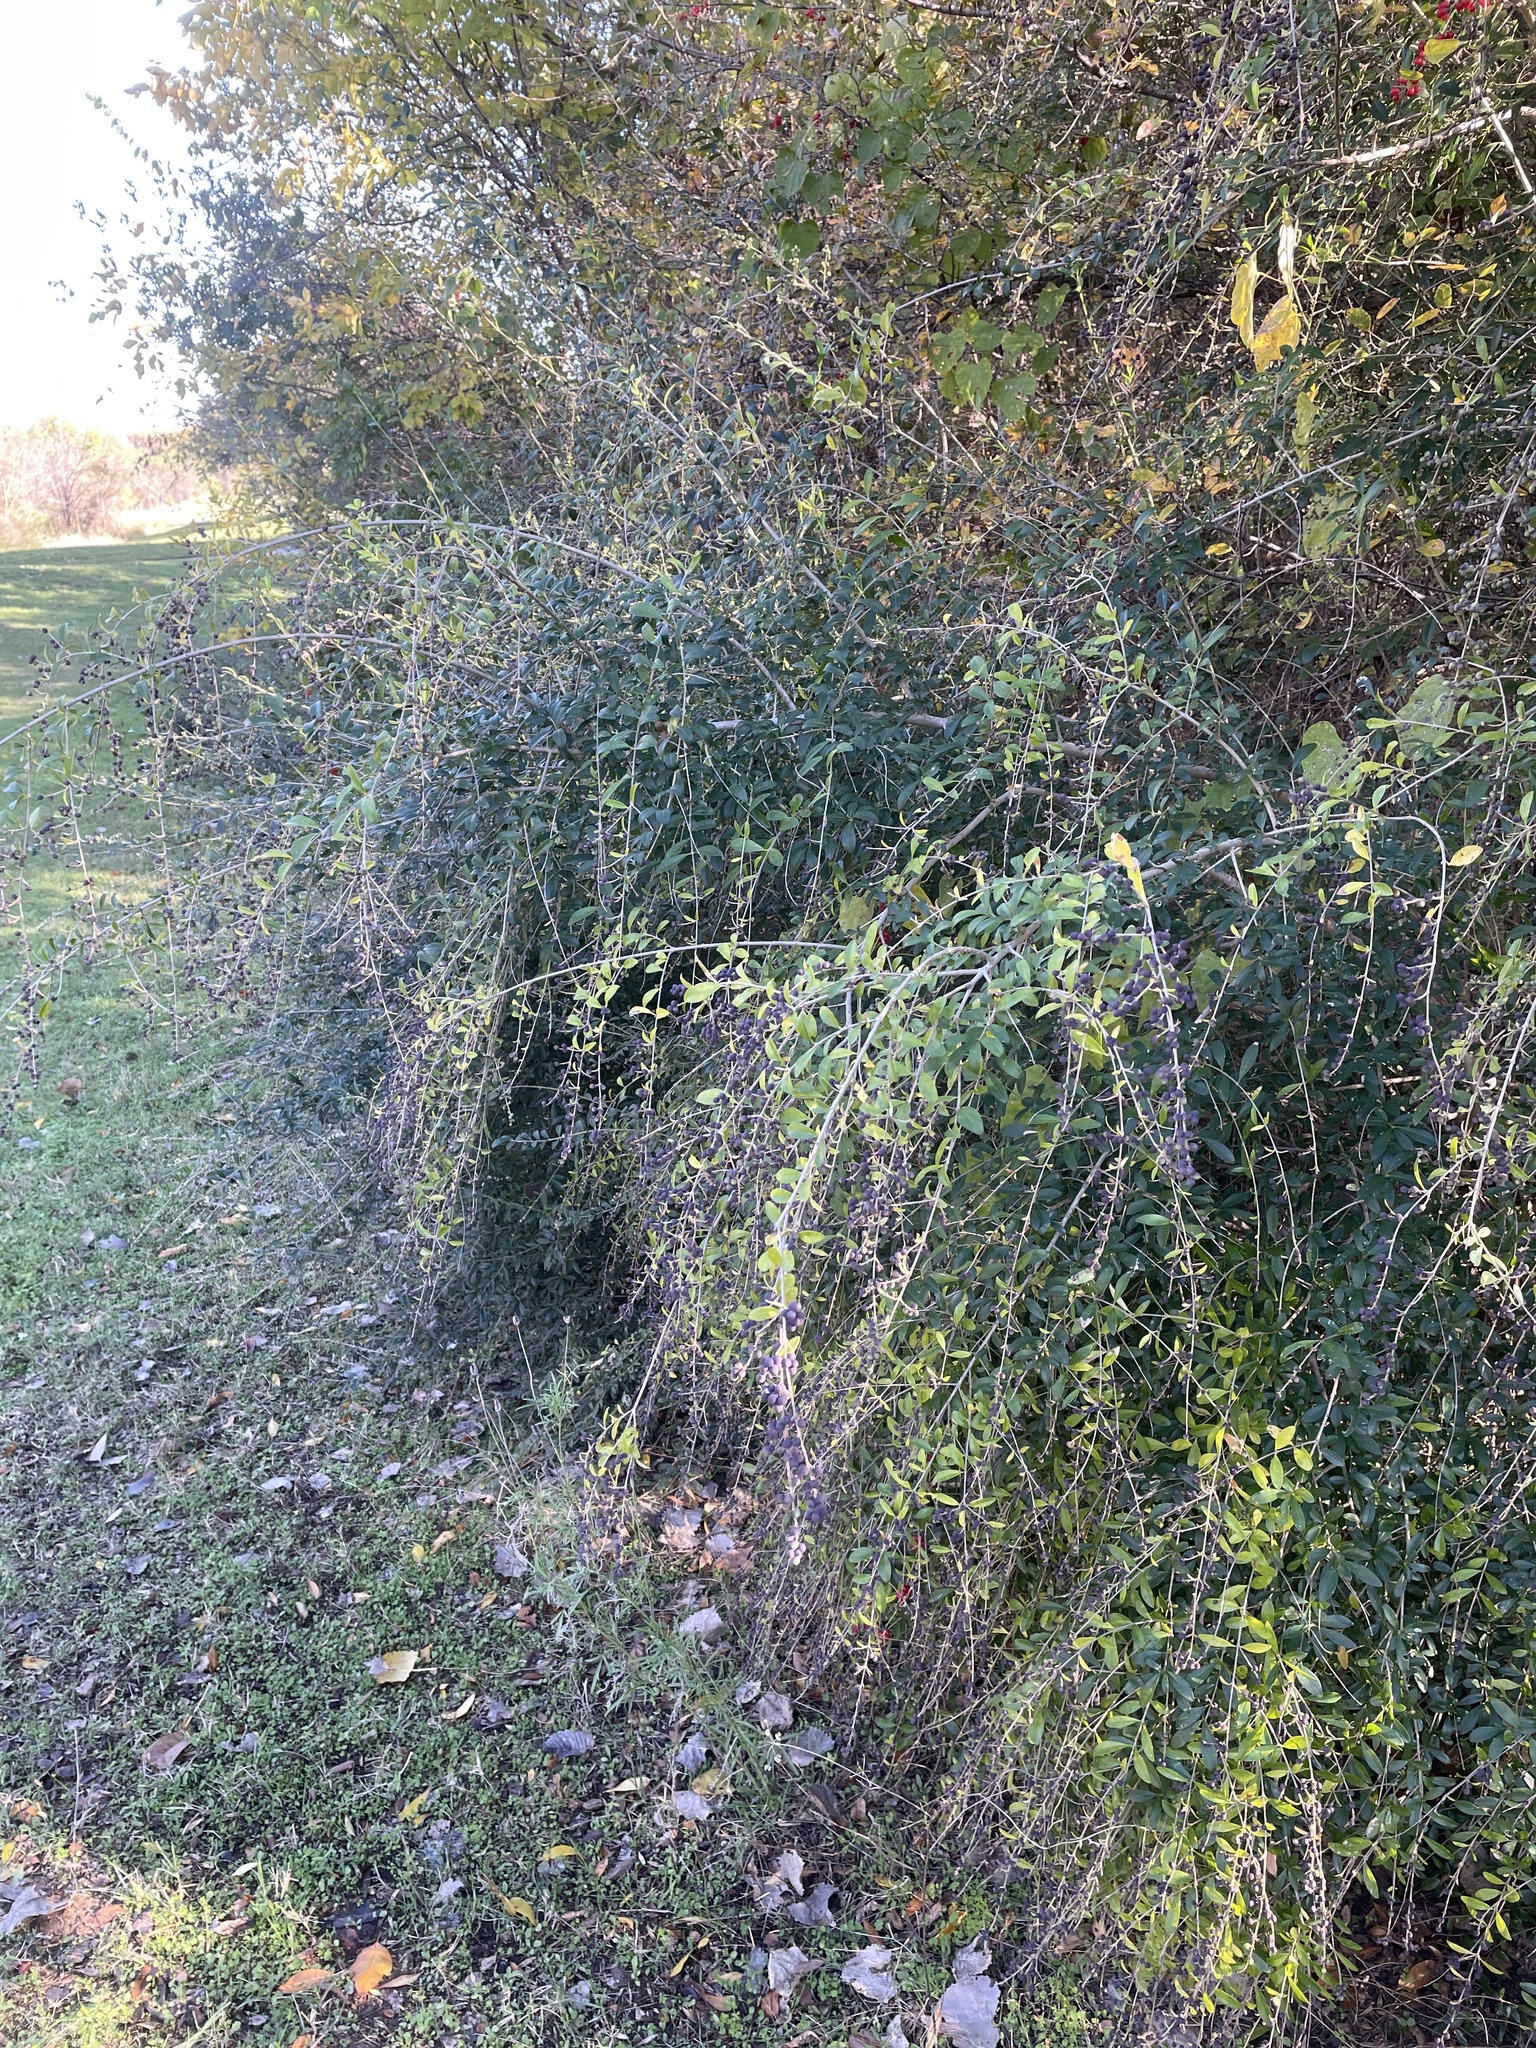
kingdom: Plantae
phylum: Tracheophyta
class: Magnoliopsida
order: Lamiales
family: Oleaceae
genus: Ligustrum
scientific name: Ligustrum quihoui
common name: Waxyleaf privet
